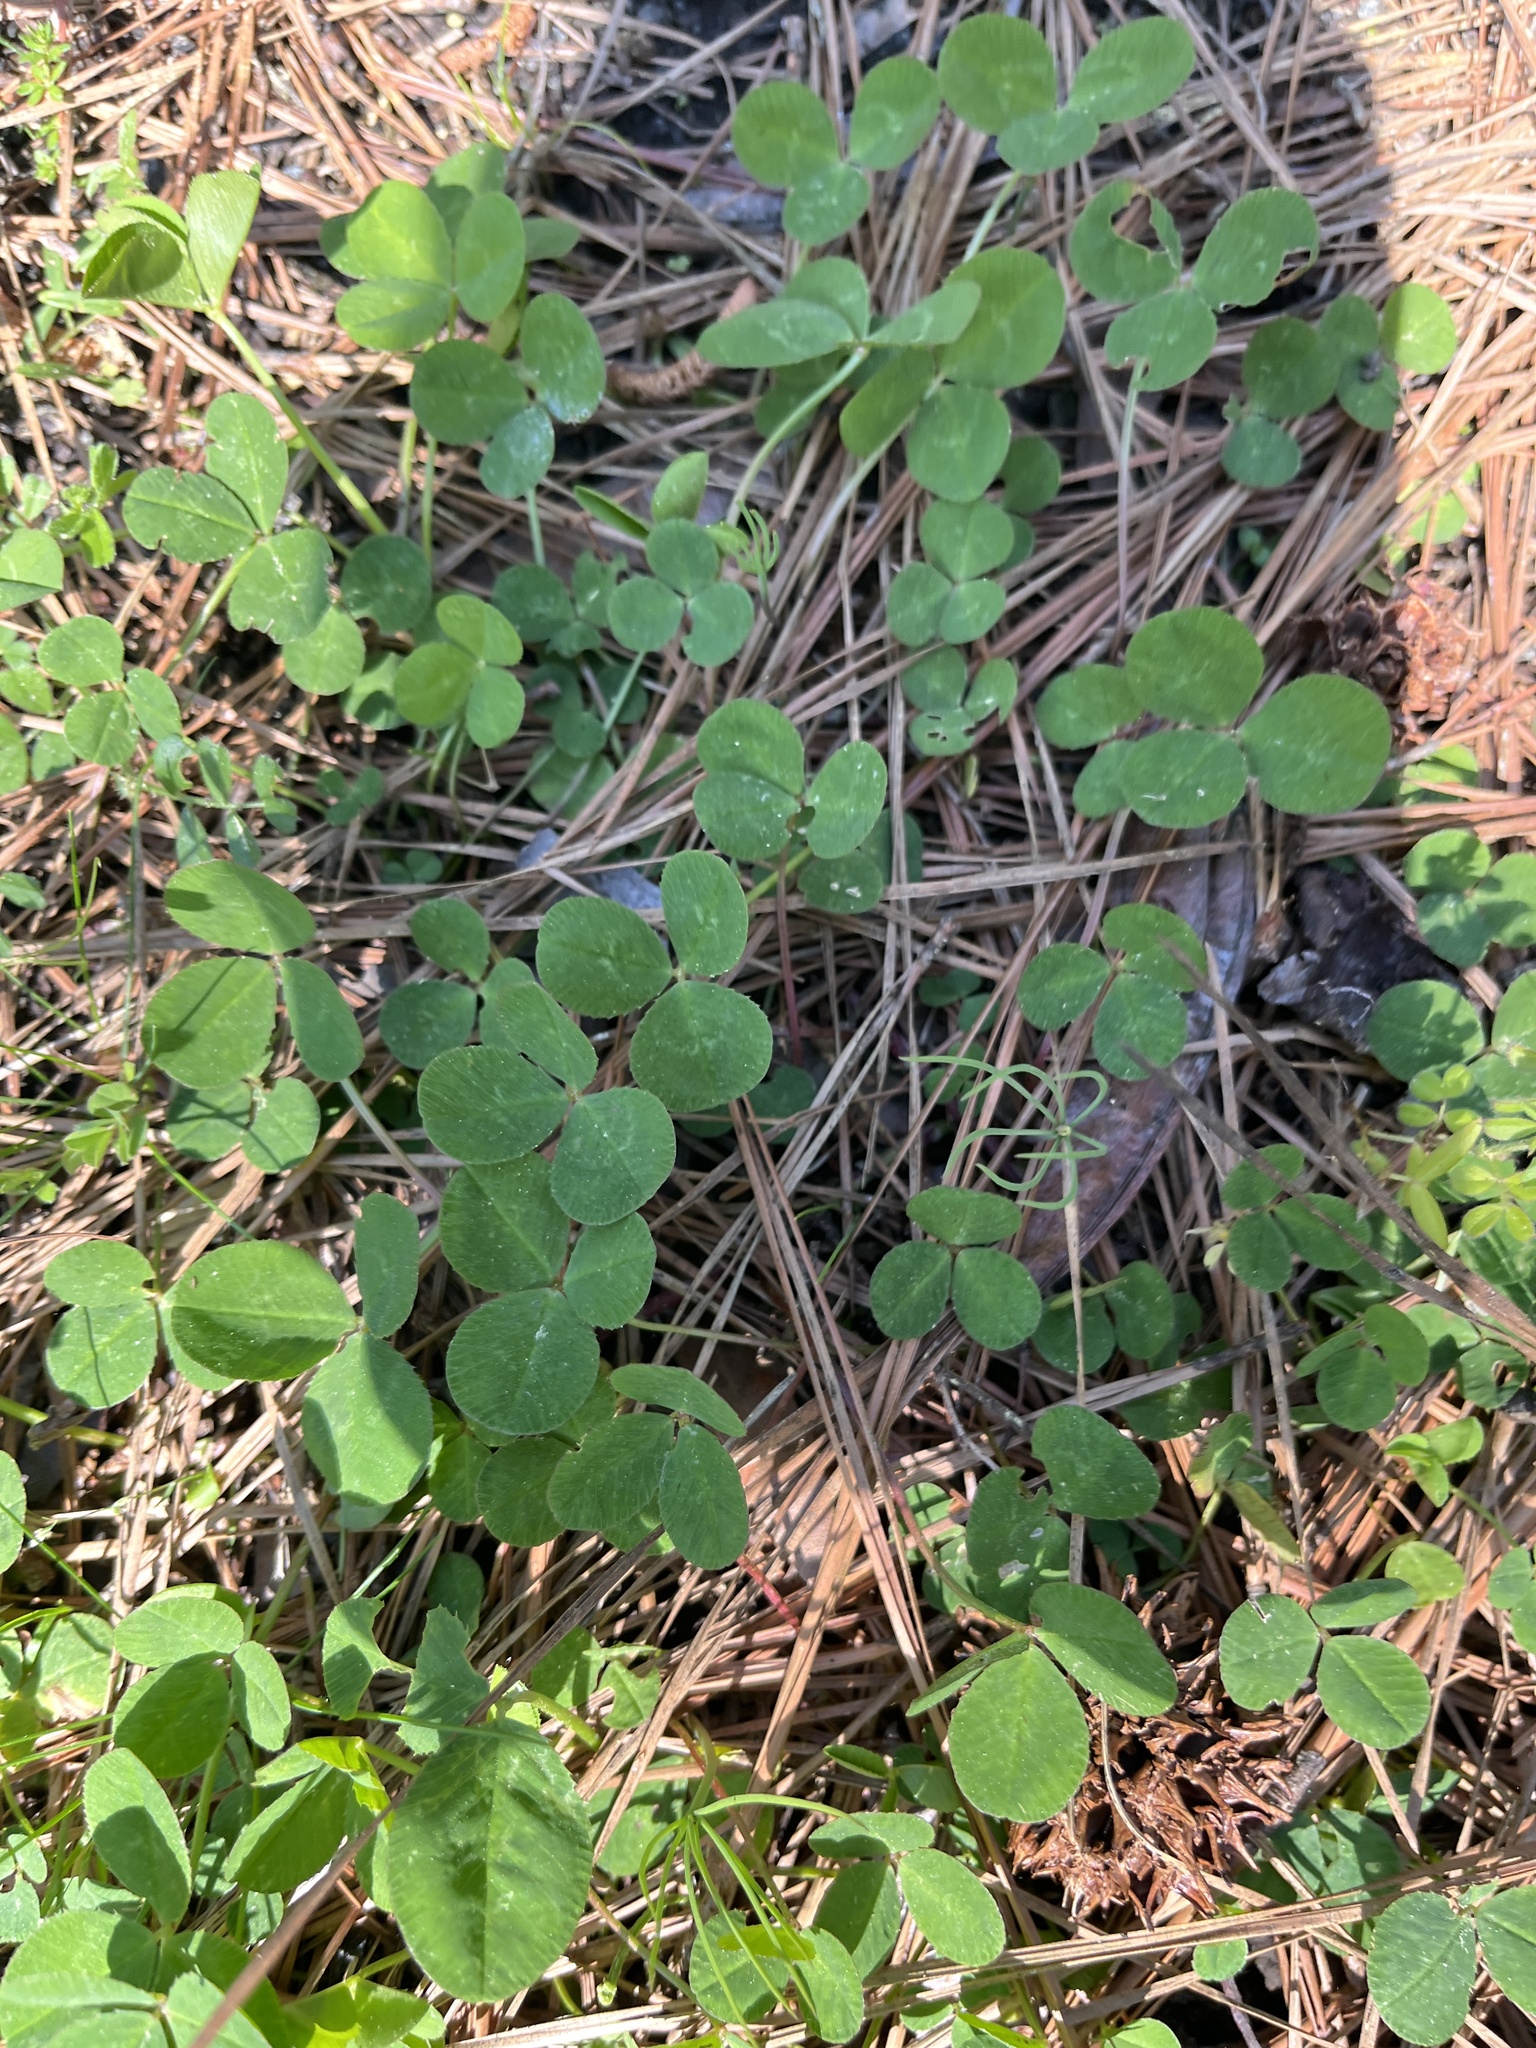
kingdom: Plantae
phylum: Tracheophyta
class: Magnoliopsida
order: Fabales
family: Fabaceae
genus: Trifolium
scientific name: Trifolium repens
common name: White clover
